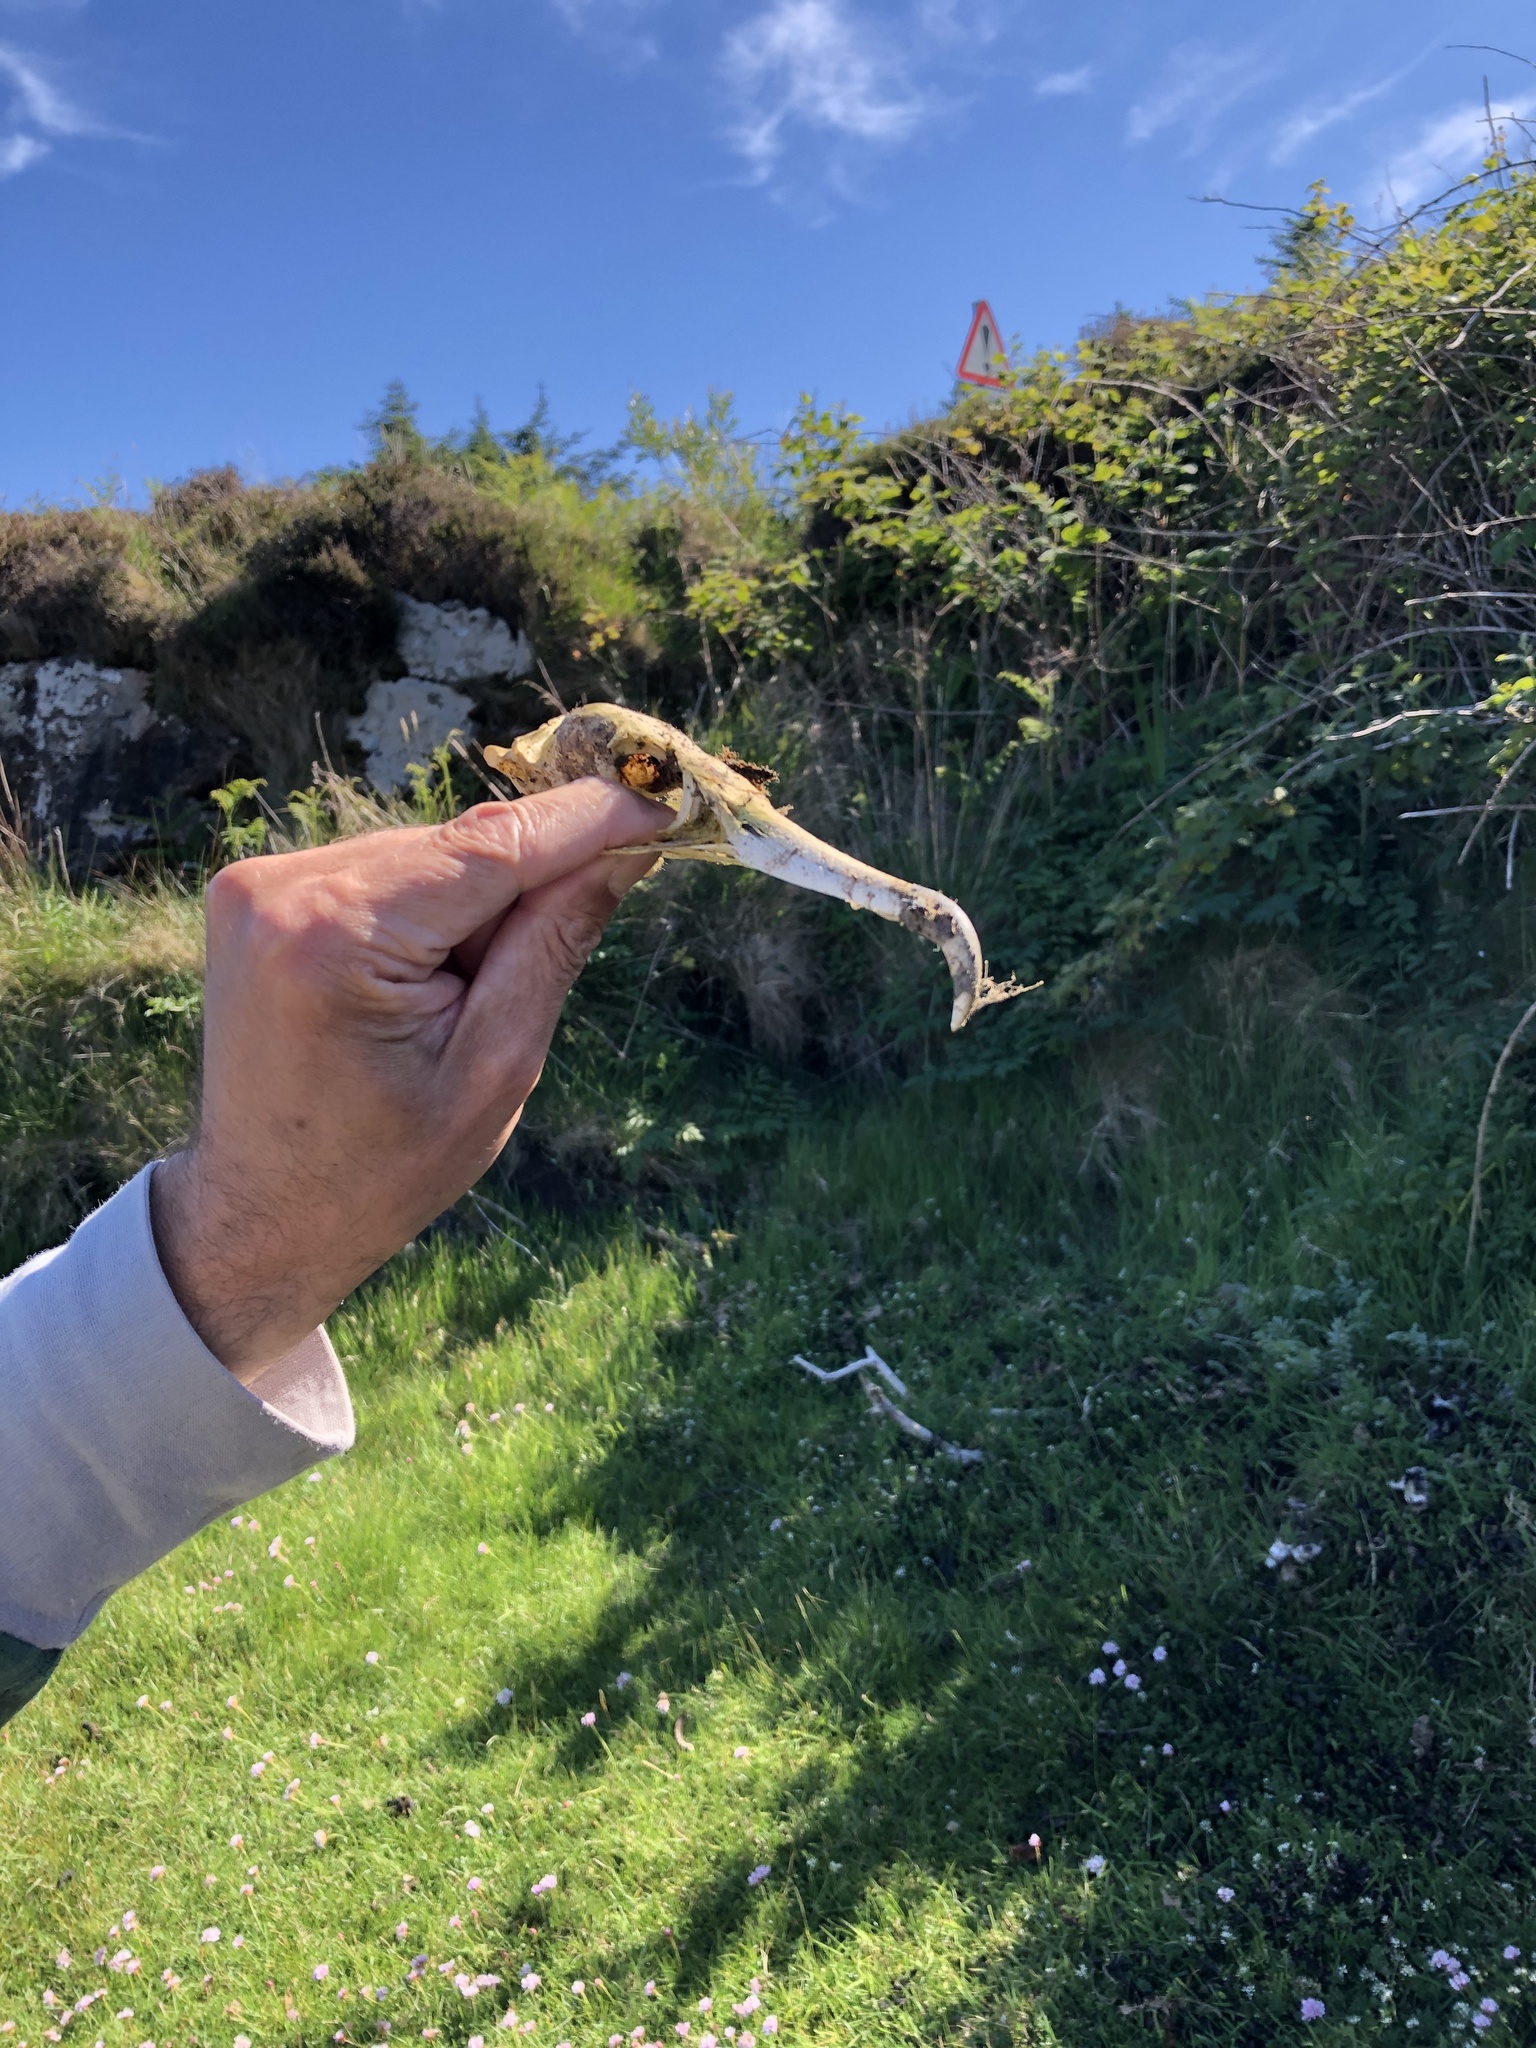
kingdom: Animalia
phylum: Chordata
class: Aves
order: Suliformes
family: Phalacrocoracidae
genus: Phalacrocorax
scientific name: Phalacrocorax carbo
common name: Great cormorant
